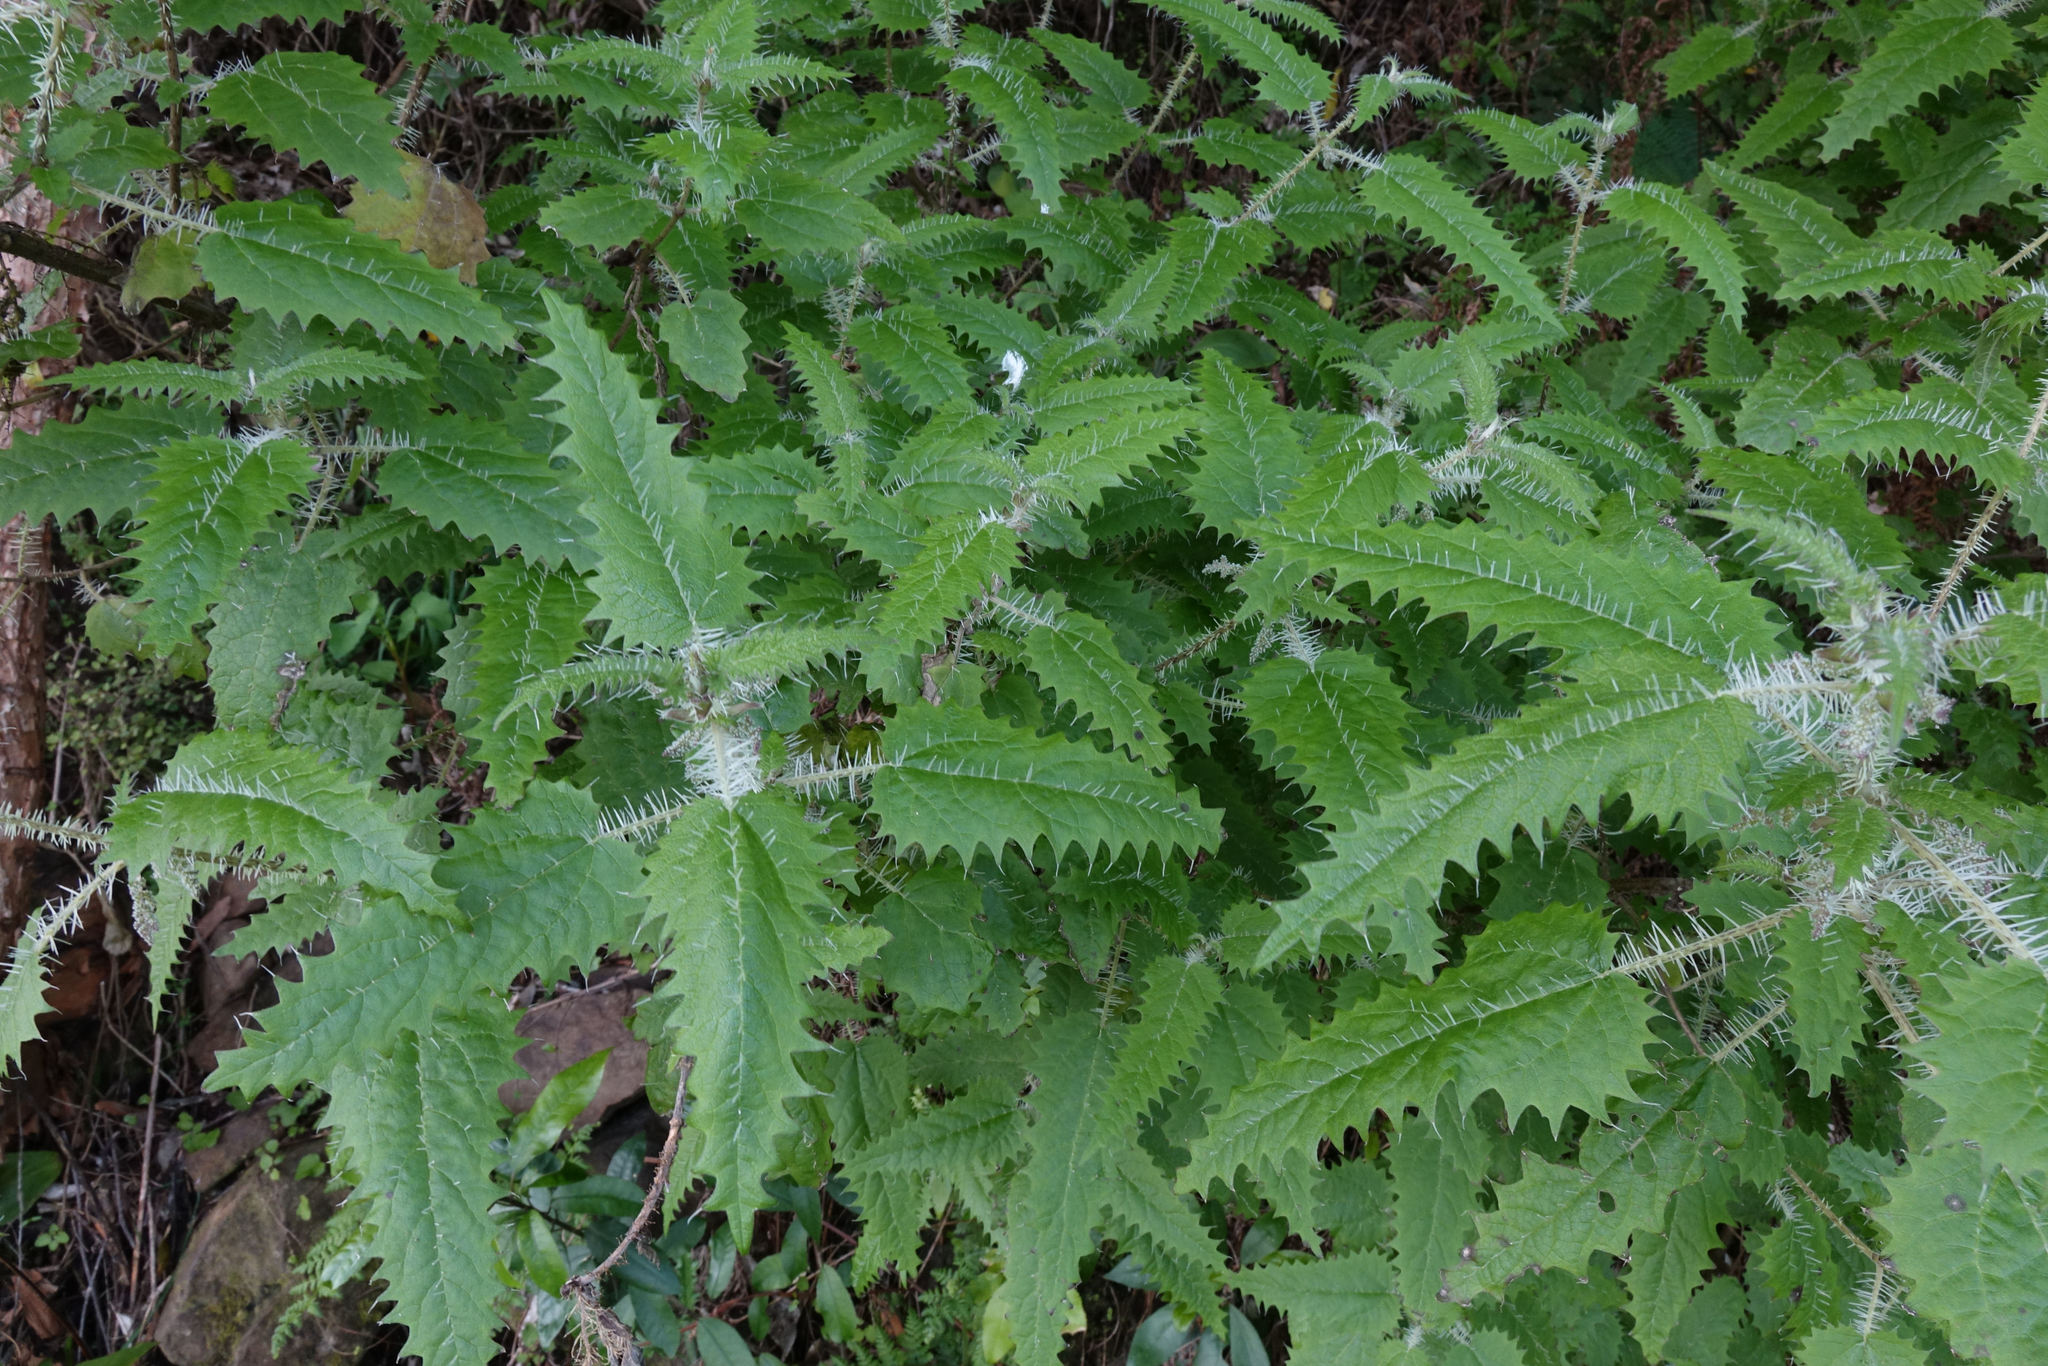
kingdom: Plantae
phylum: Tracheophyta
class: Magnoliopsida
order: Rosales
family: Urticaceae
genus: Urtica
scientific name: Urtica ferox
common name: Tree nettle
